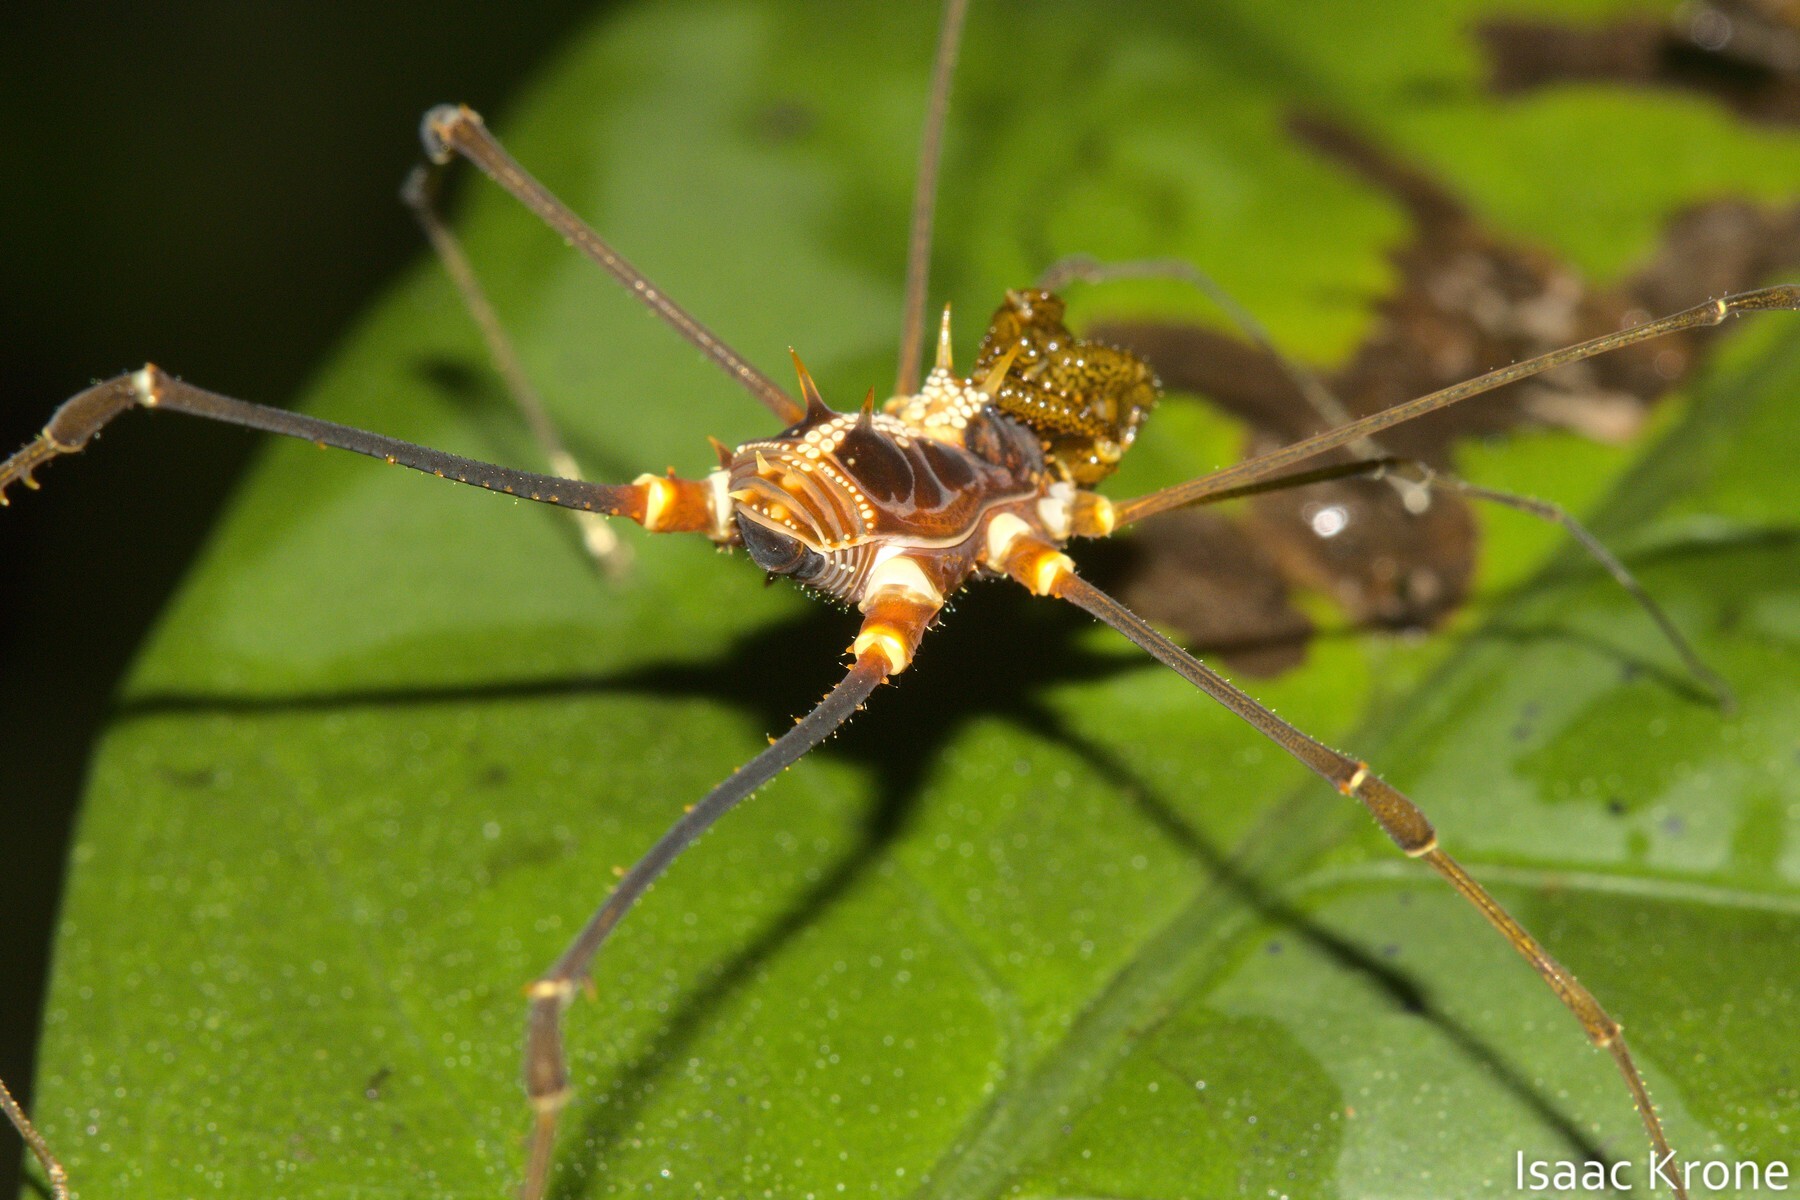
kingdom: Animalia
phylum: Arthropoda
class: Arachnida
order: Opiliones
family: Cranaidae
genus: Phareicranaus
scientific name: Phareicranaus hermosa
